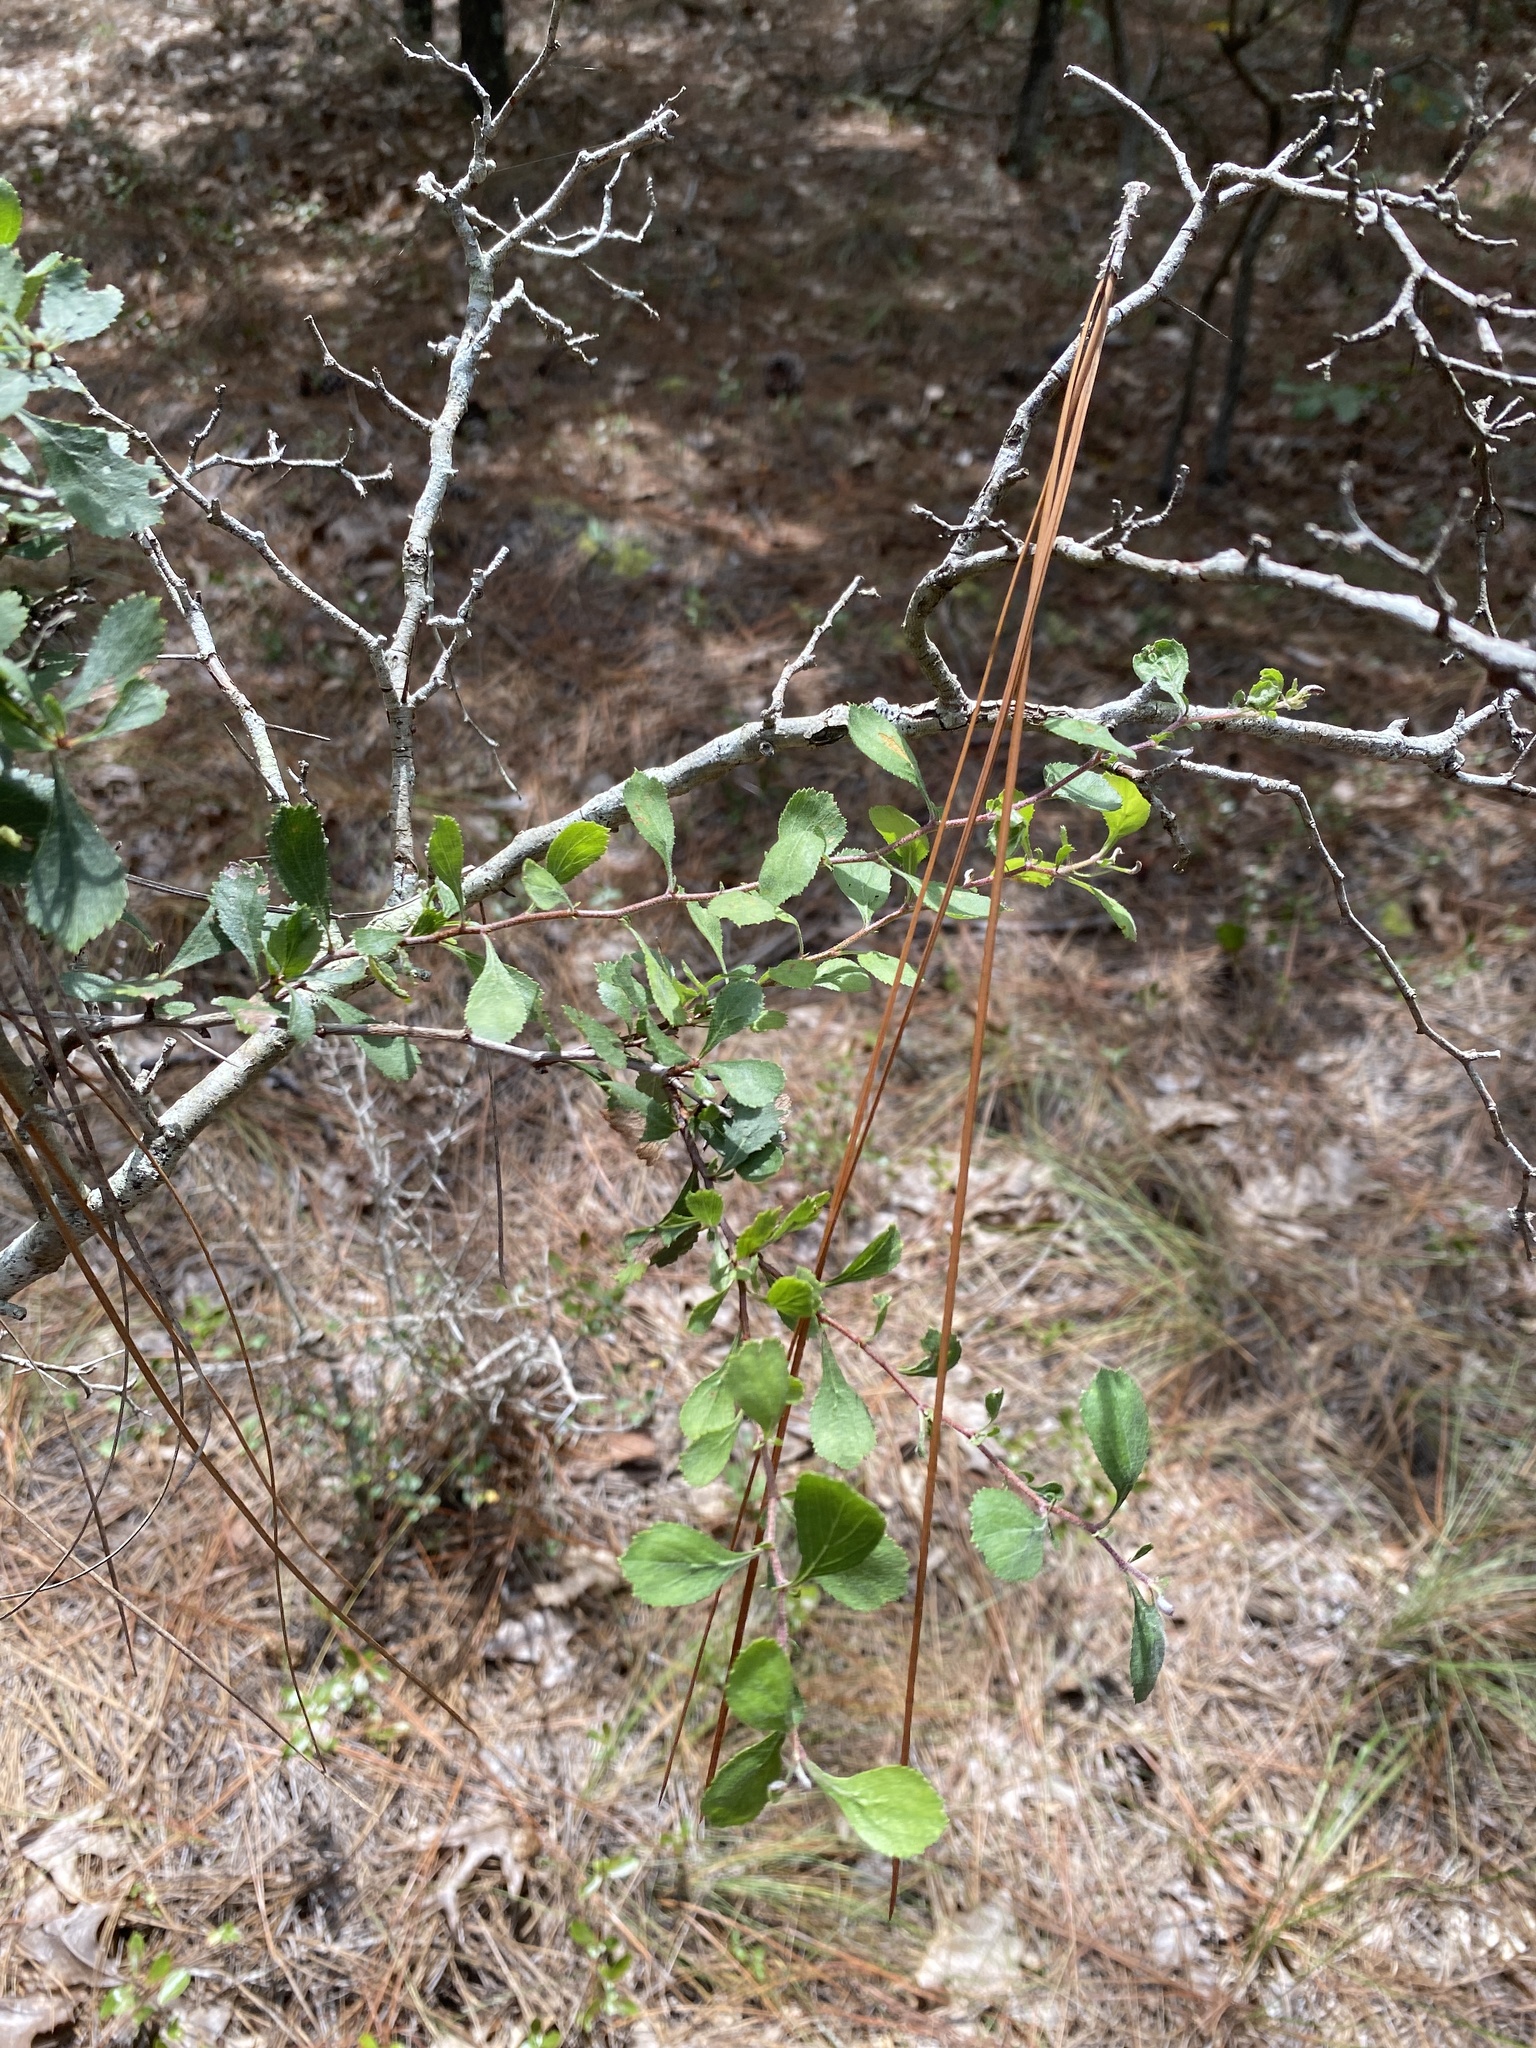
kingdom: Plantae
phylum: Tracheophyta
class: Magnoliopsida
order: Rosales
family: Rosaceae
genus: Crataegus
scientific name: Crataegus munda
